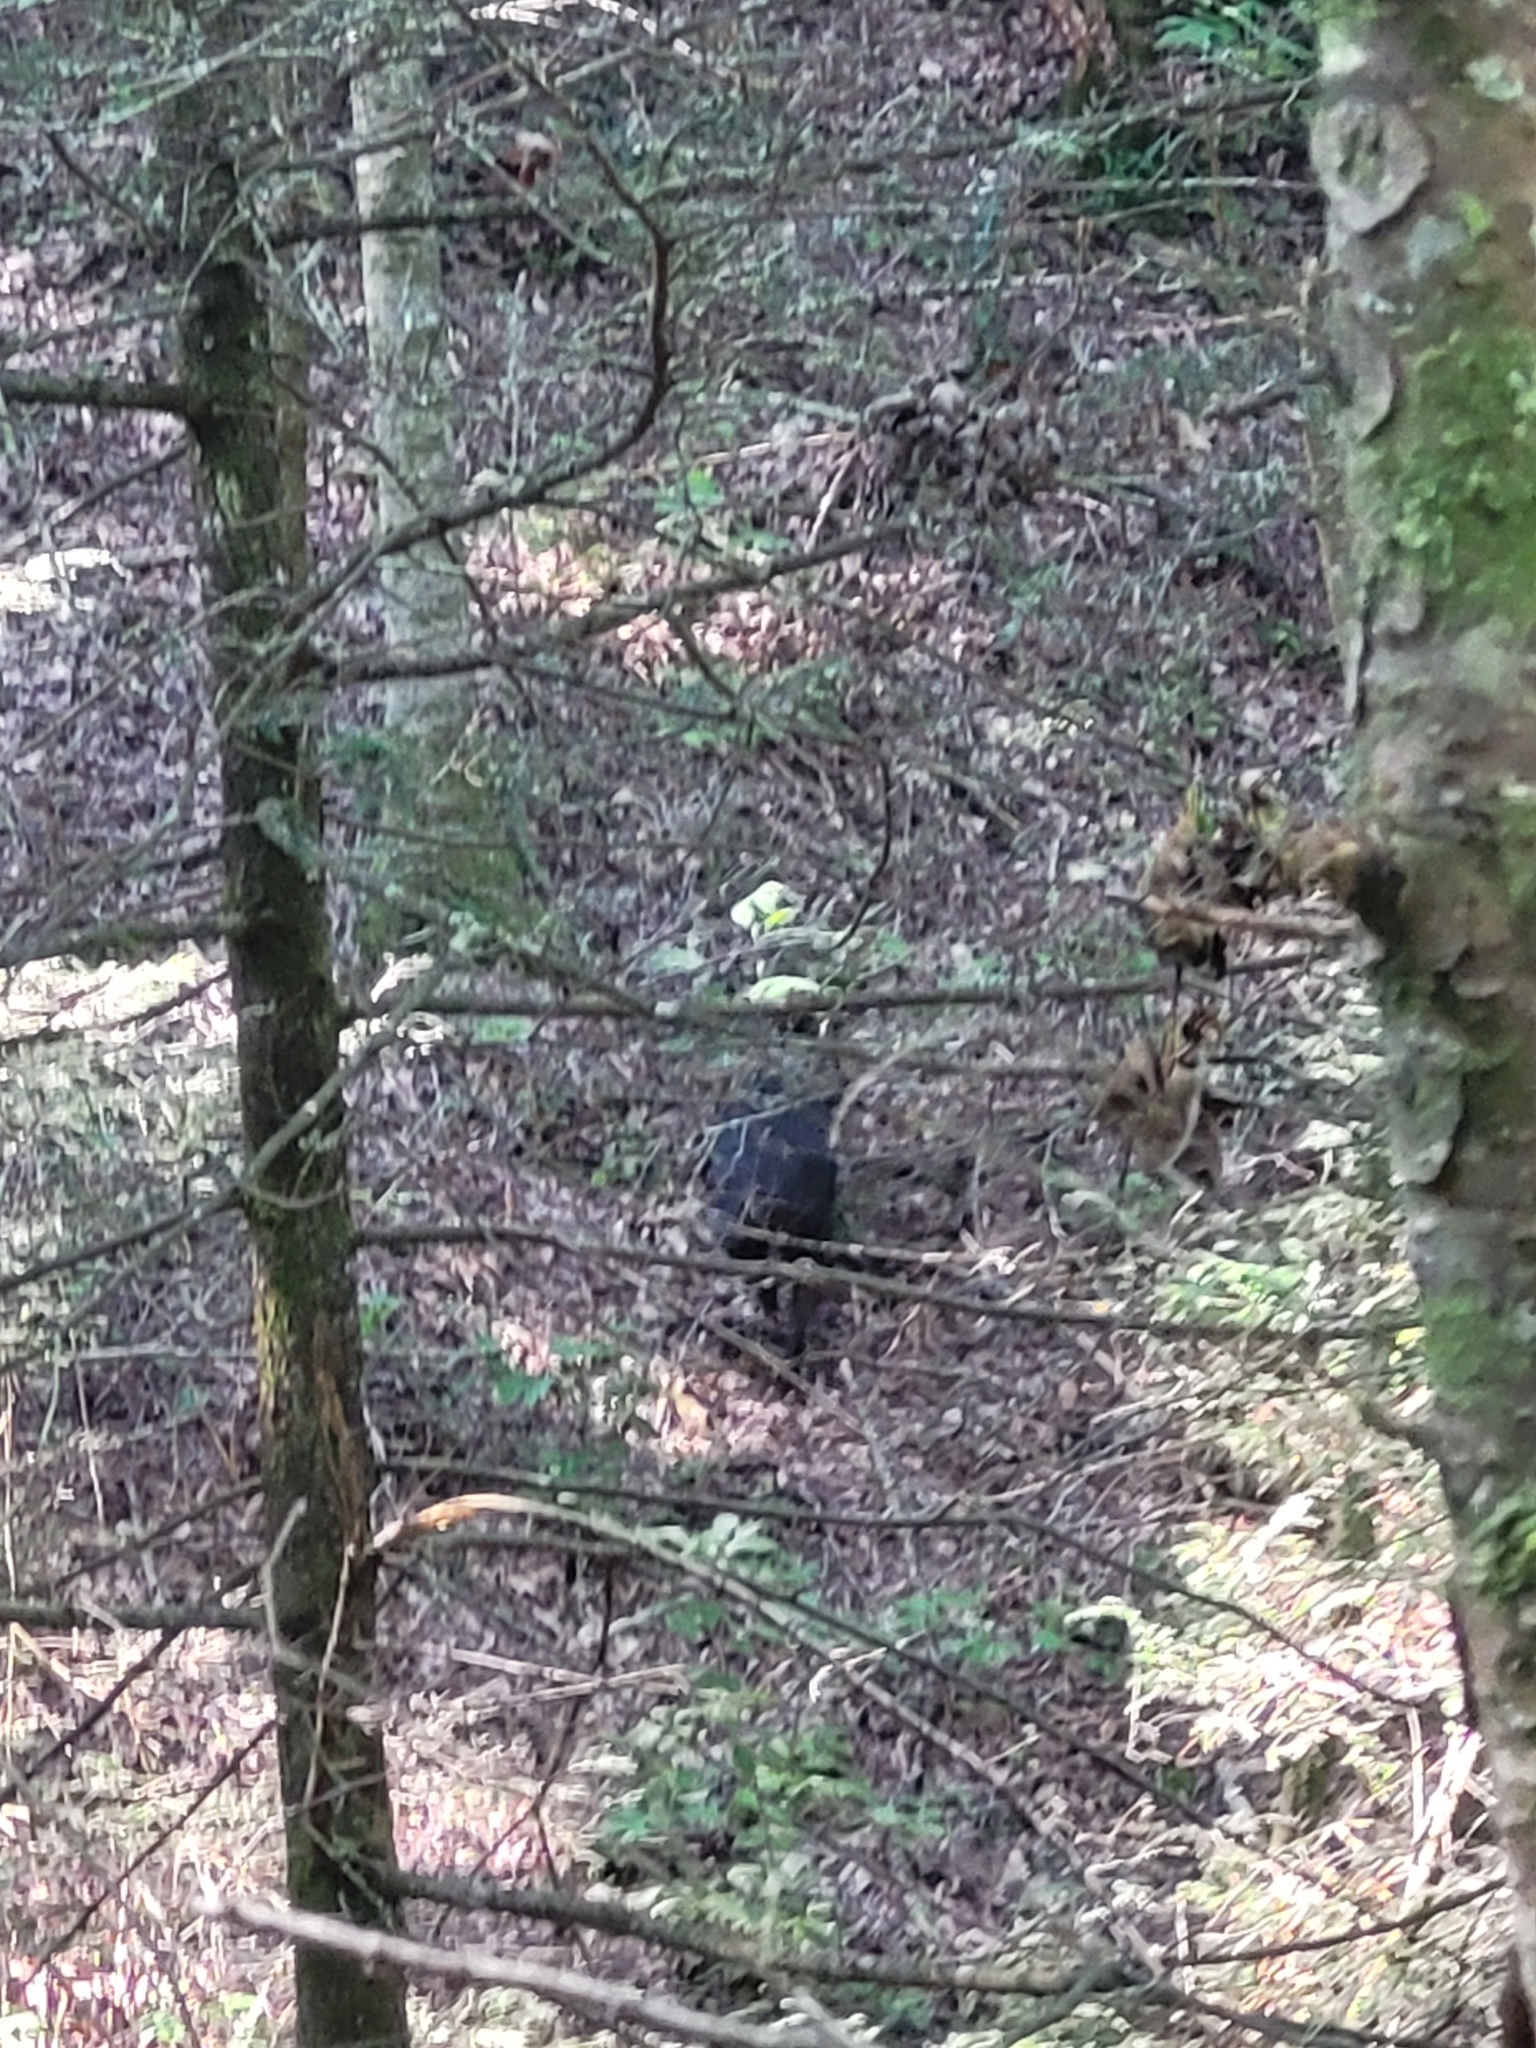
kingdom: Animalia
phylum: Chordata
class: Mammalia
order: Artiodactyla
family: Suidae
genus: Sus
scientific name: Sus scrofa
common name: Wild boar
